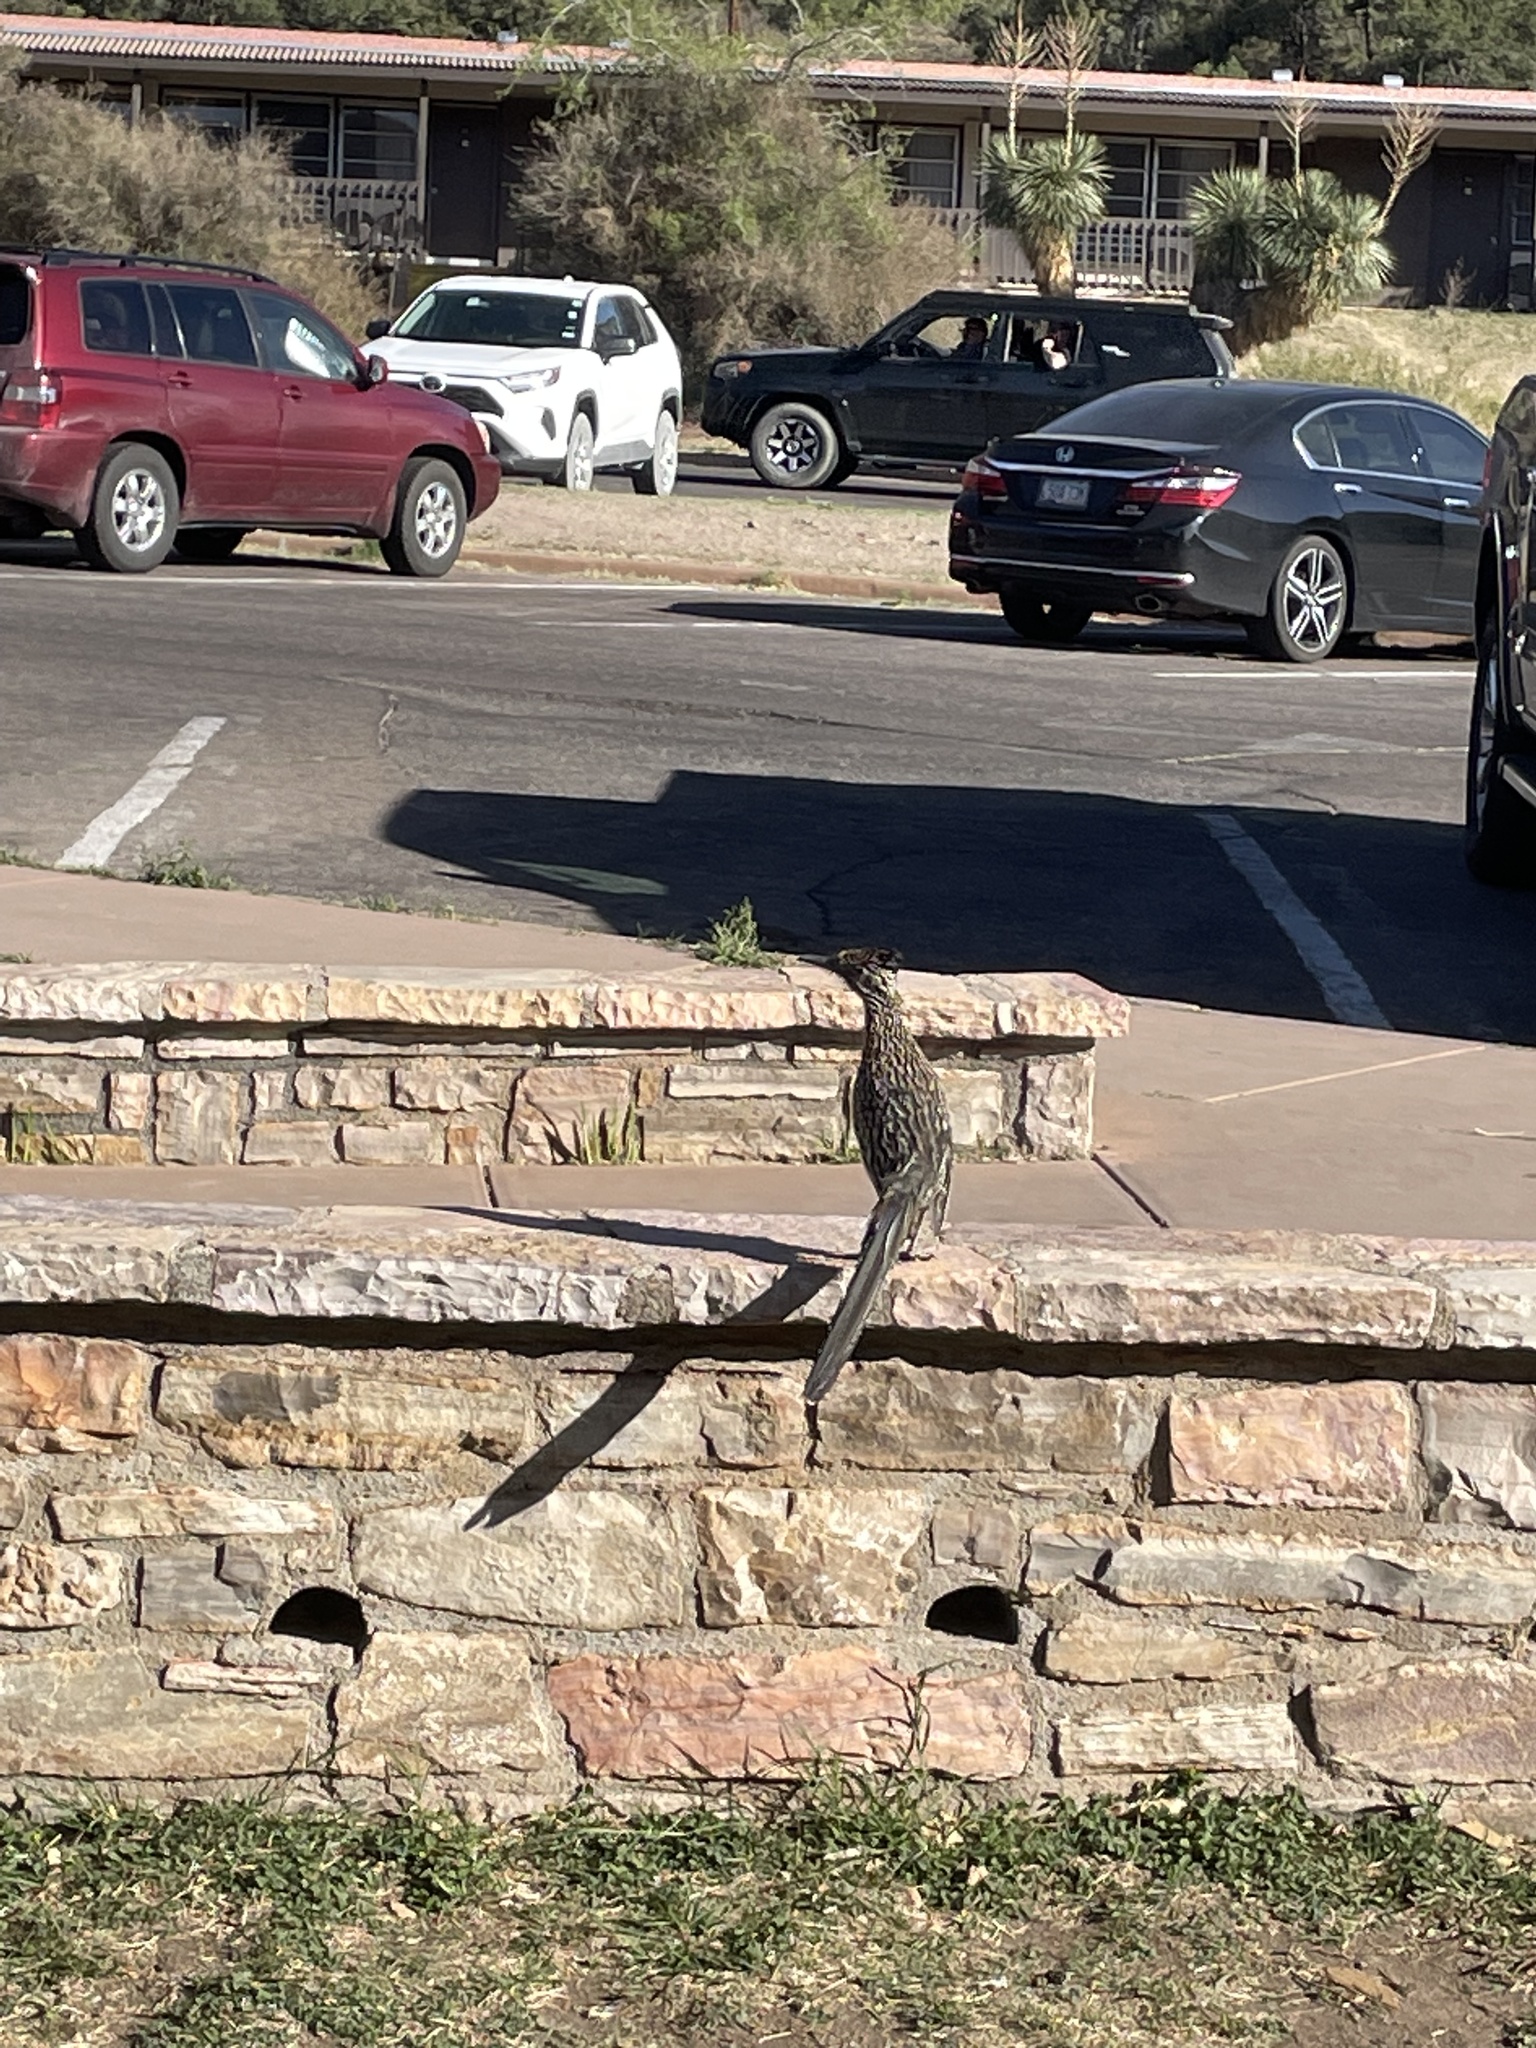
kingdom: Animalia
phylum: Chordata
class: Aves
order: Cuculiformes
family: Cuculidae
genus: Geococcyx
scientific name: Geococcyx californianus
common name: Greater roadrunner
